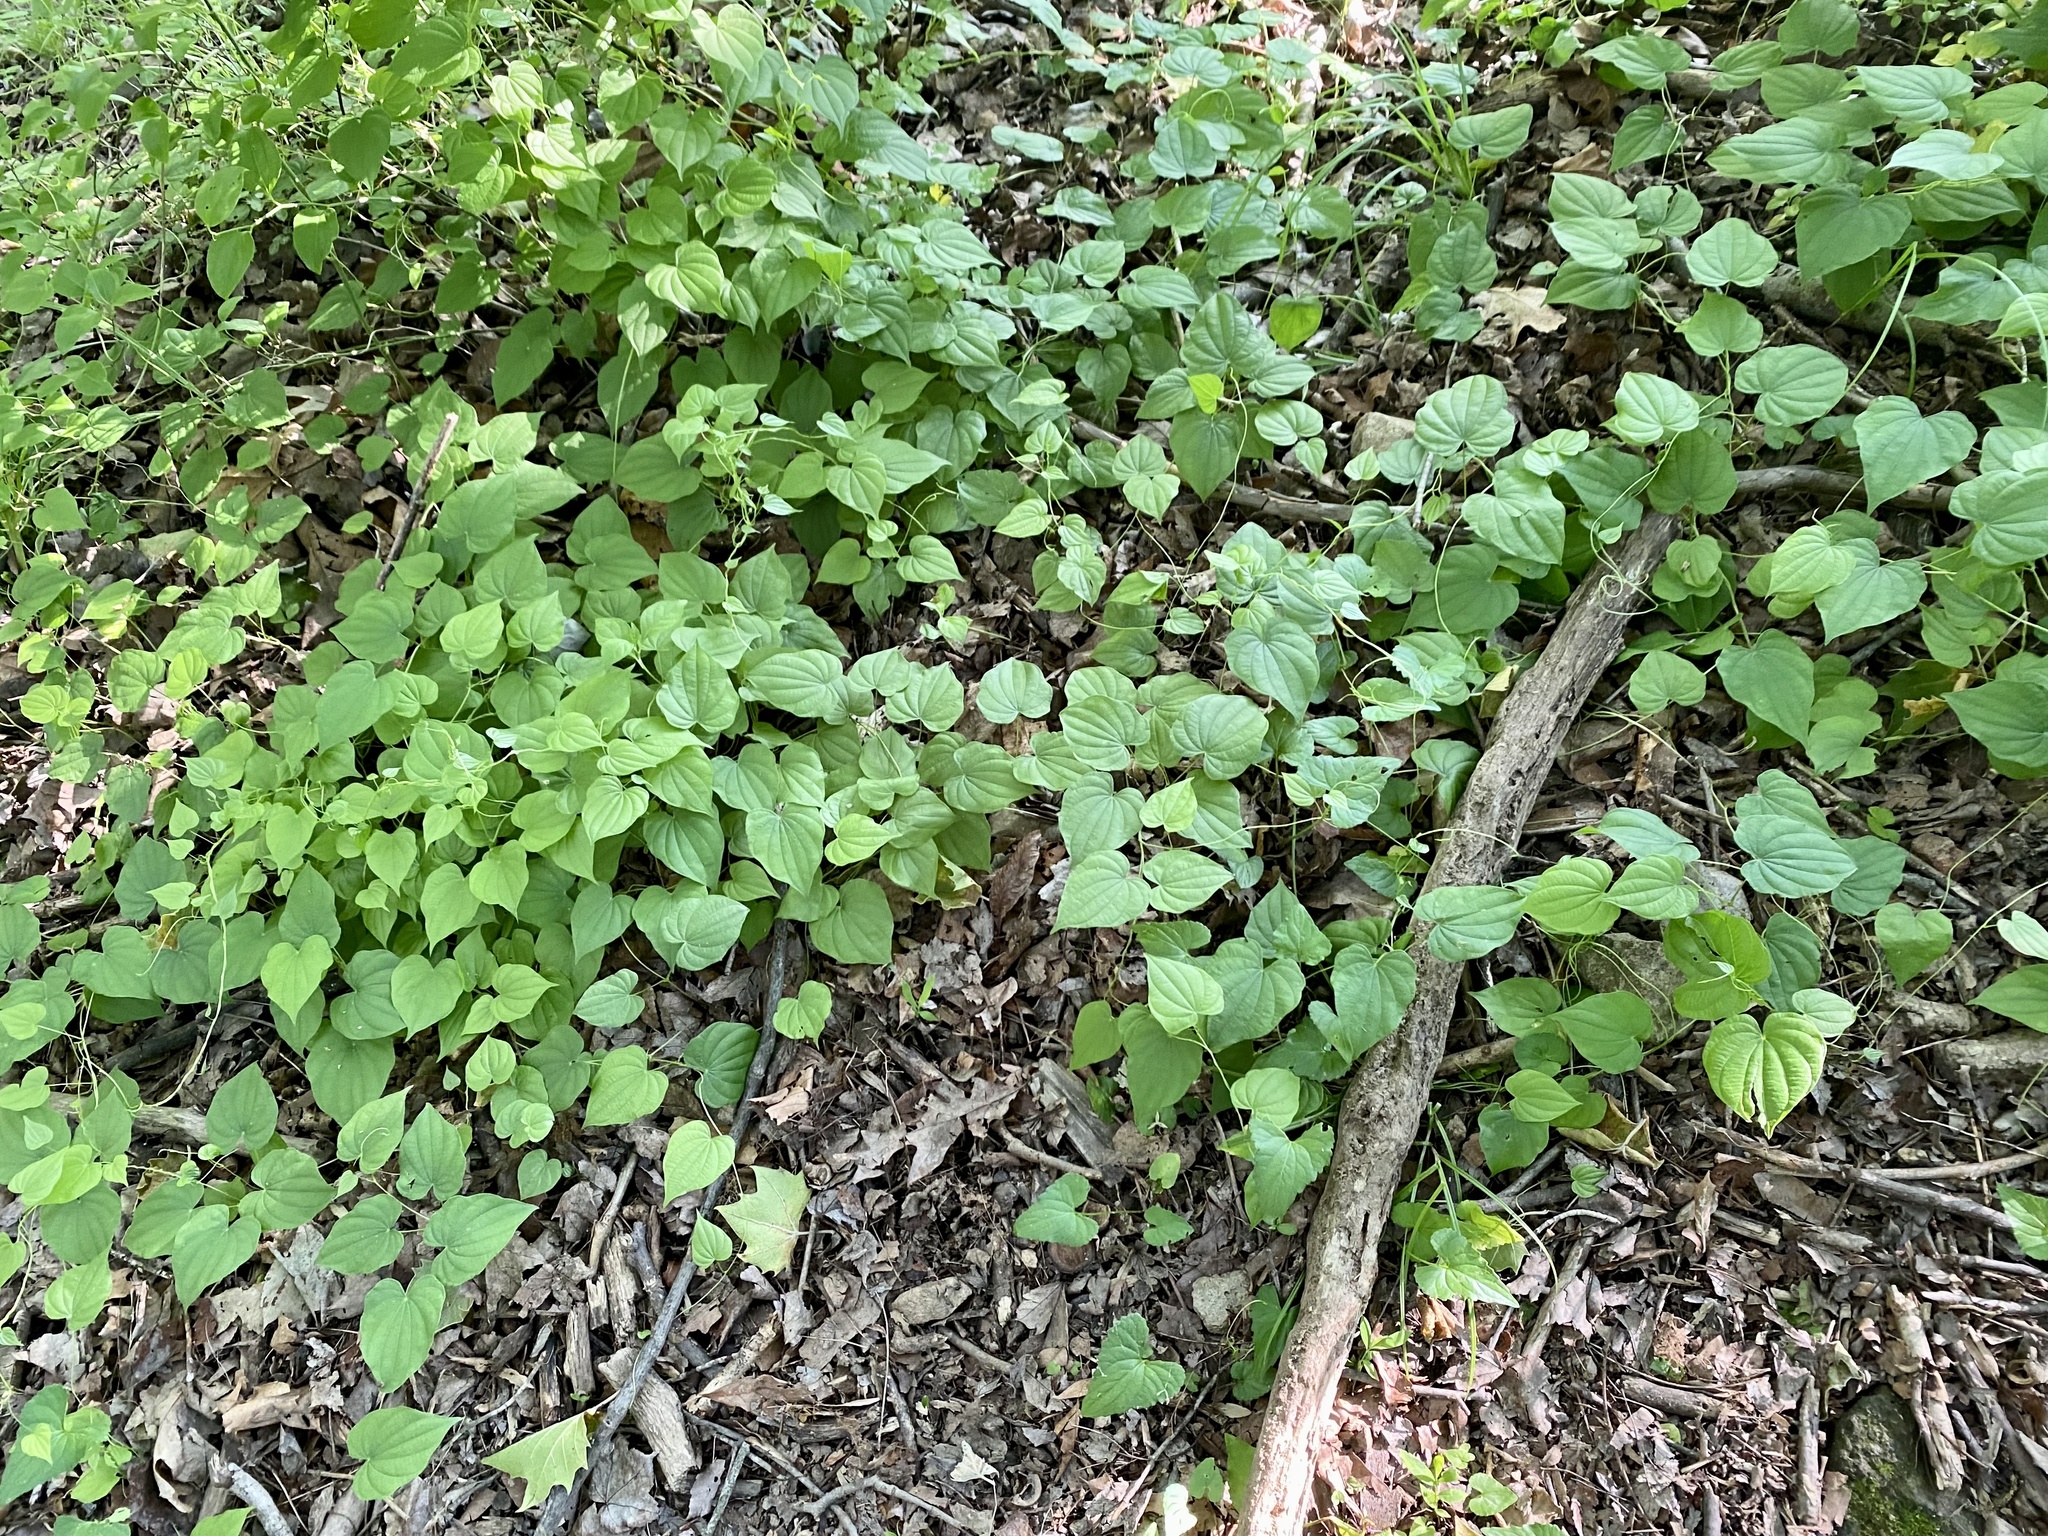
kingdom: Plantae
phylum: Tracheophyta
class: Liliopsida
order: Dioscoreales
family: Dioscoreaceae
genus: Dioscorea
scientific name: Dioscorea villosa
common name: Wild yam
